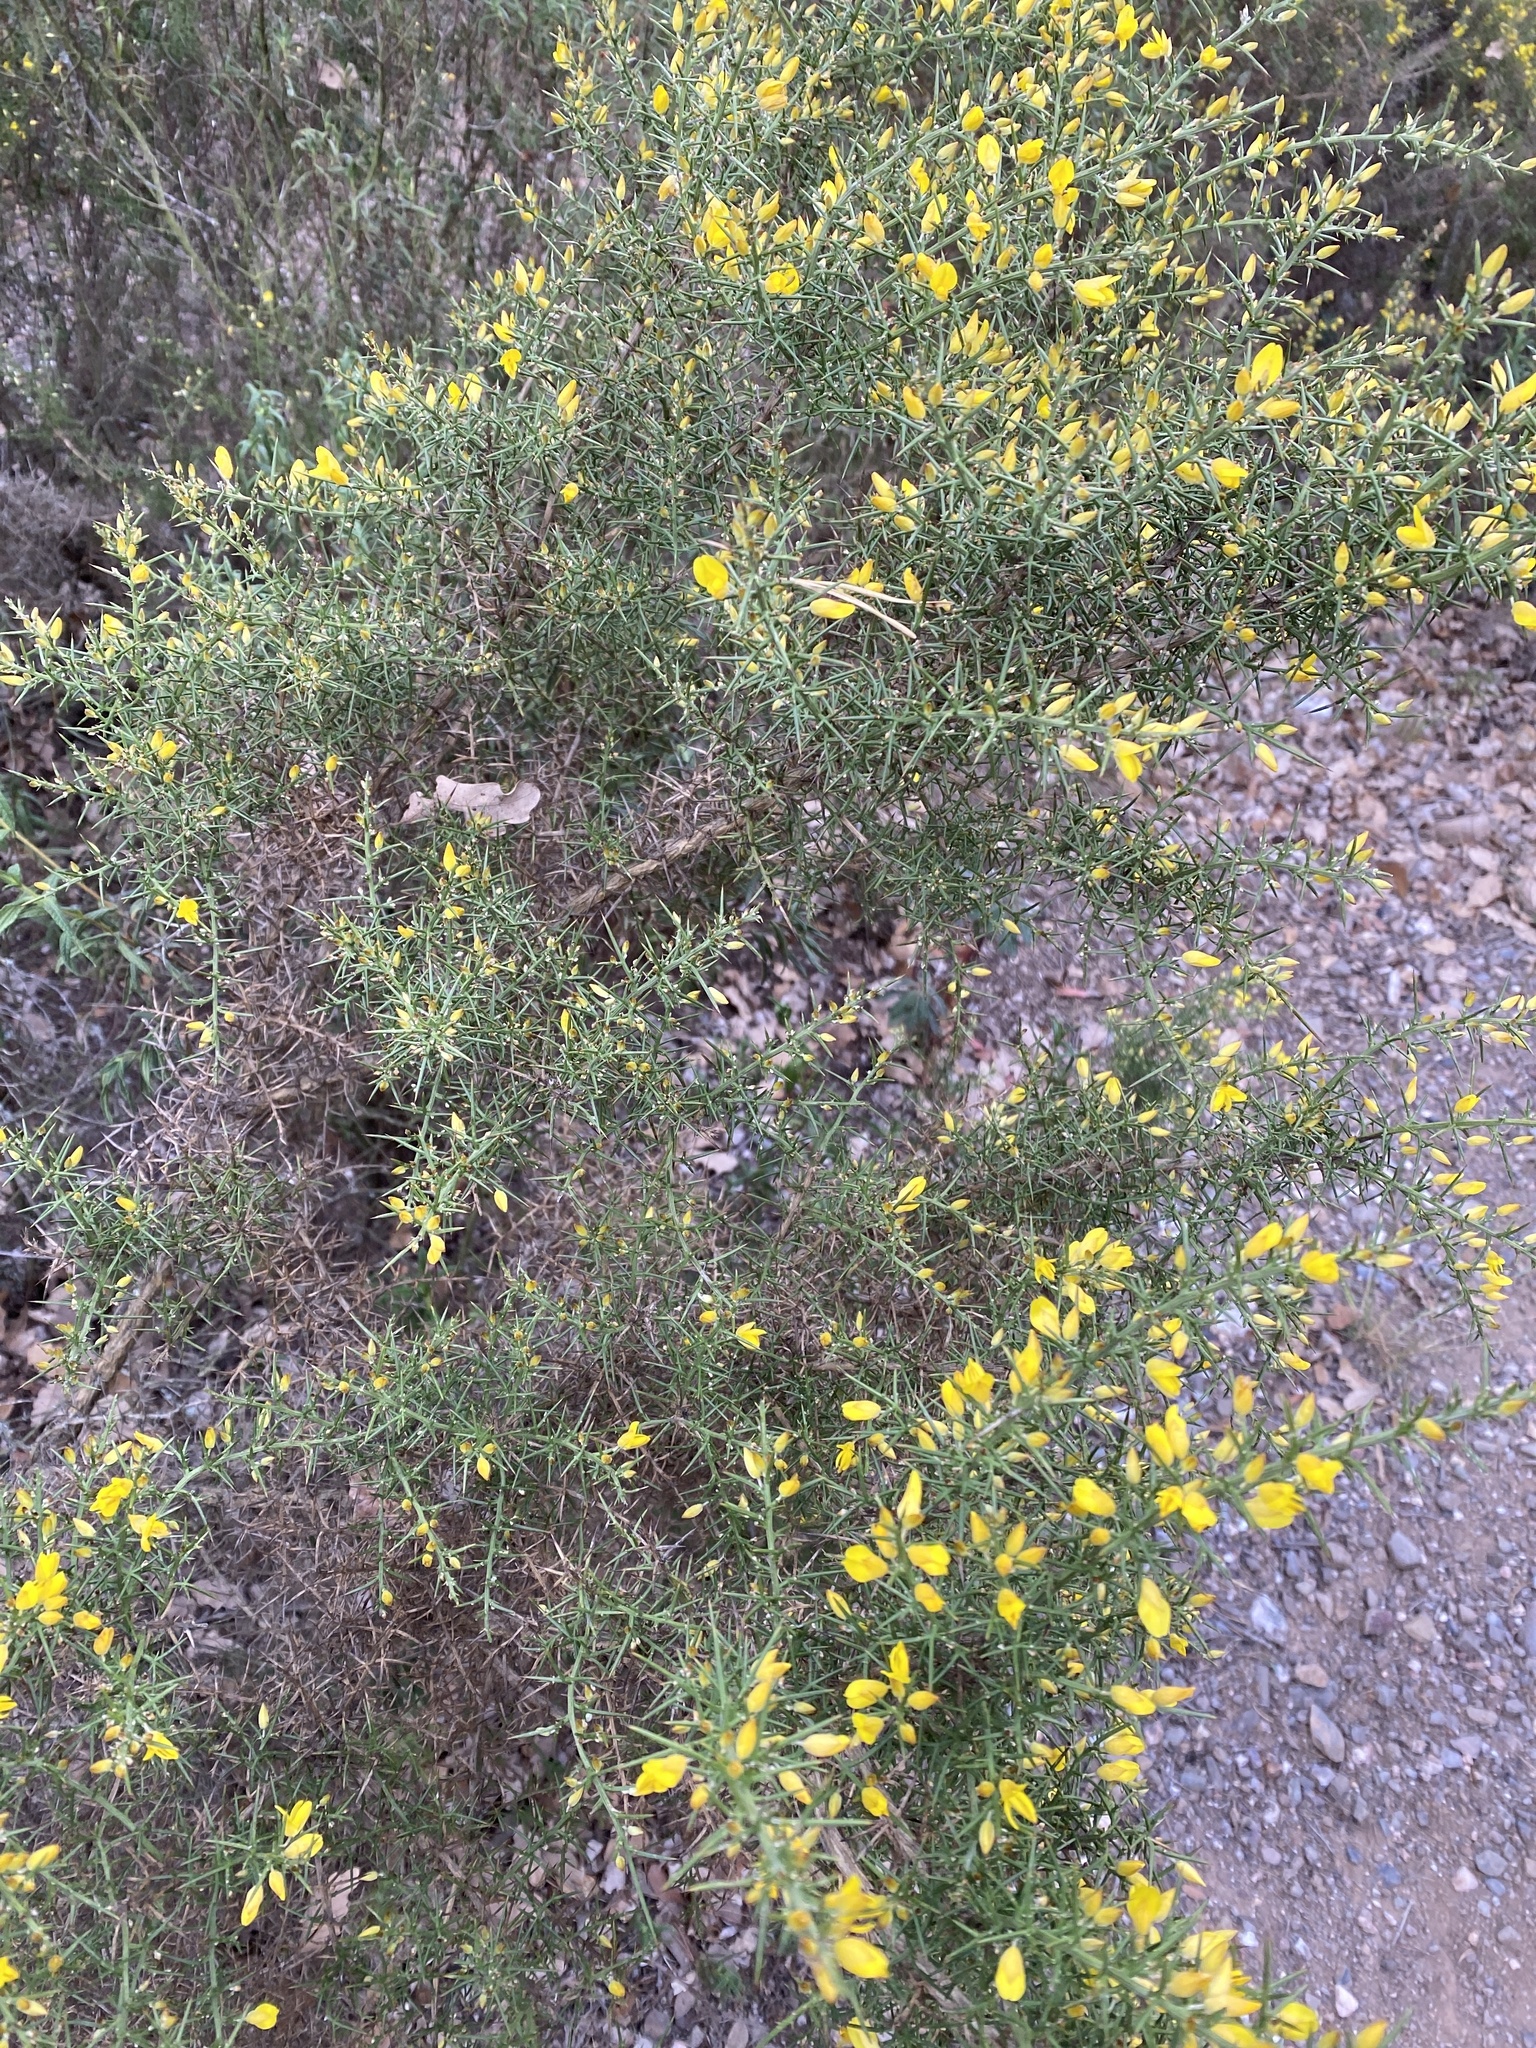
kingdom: Plantae
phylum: Tracheophyta
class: Magnoliopsida
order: Fabales
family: Fabaceae
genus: Ulex
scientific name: Ulex parviflorus
